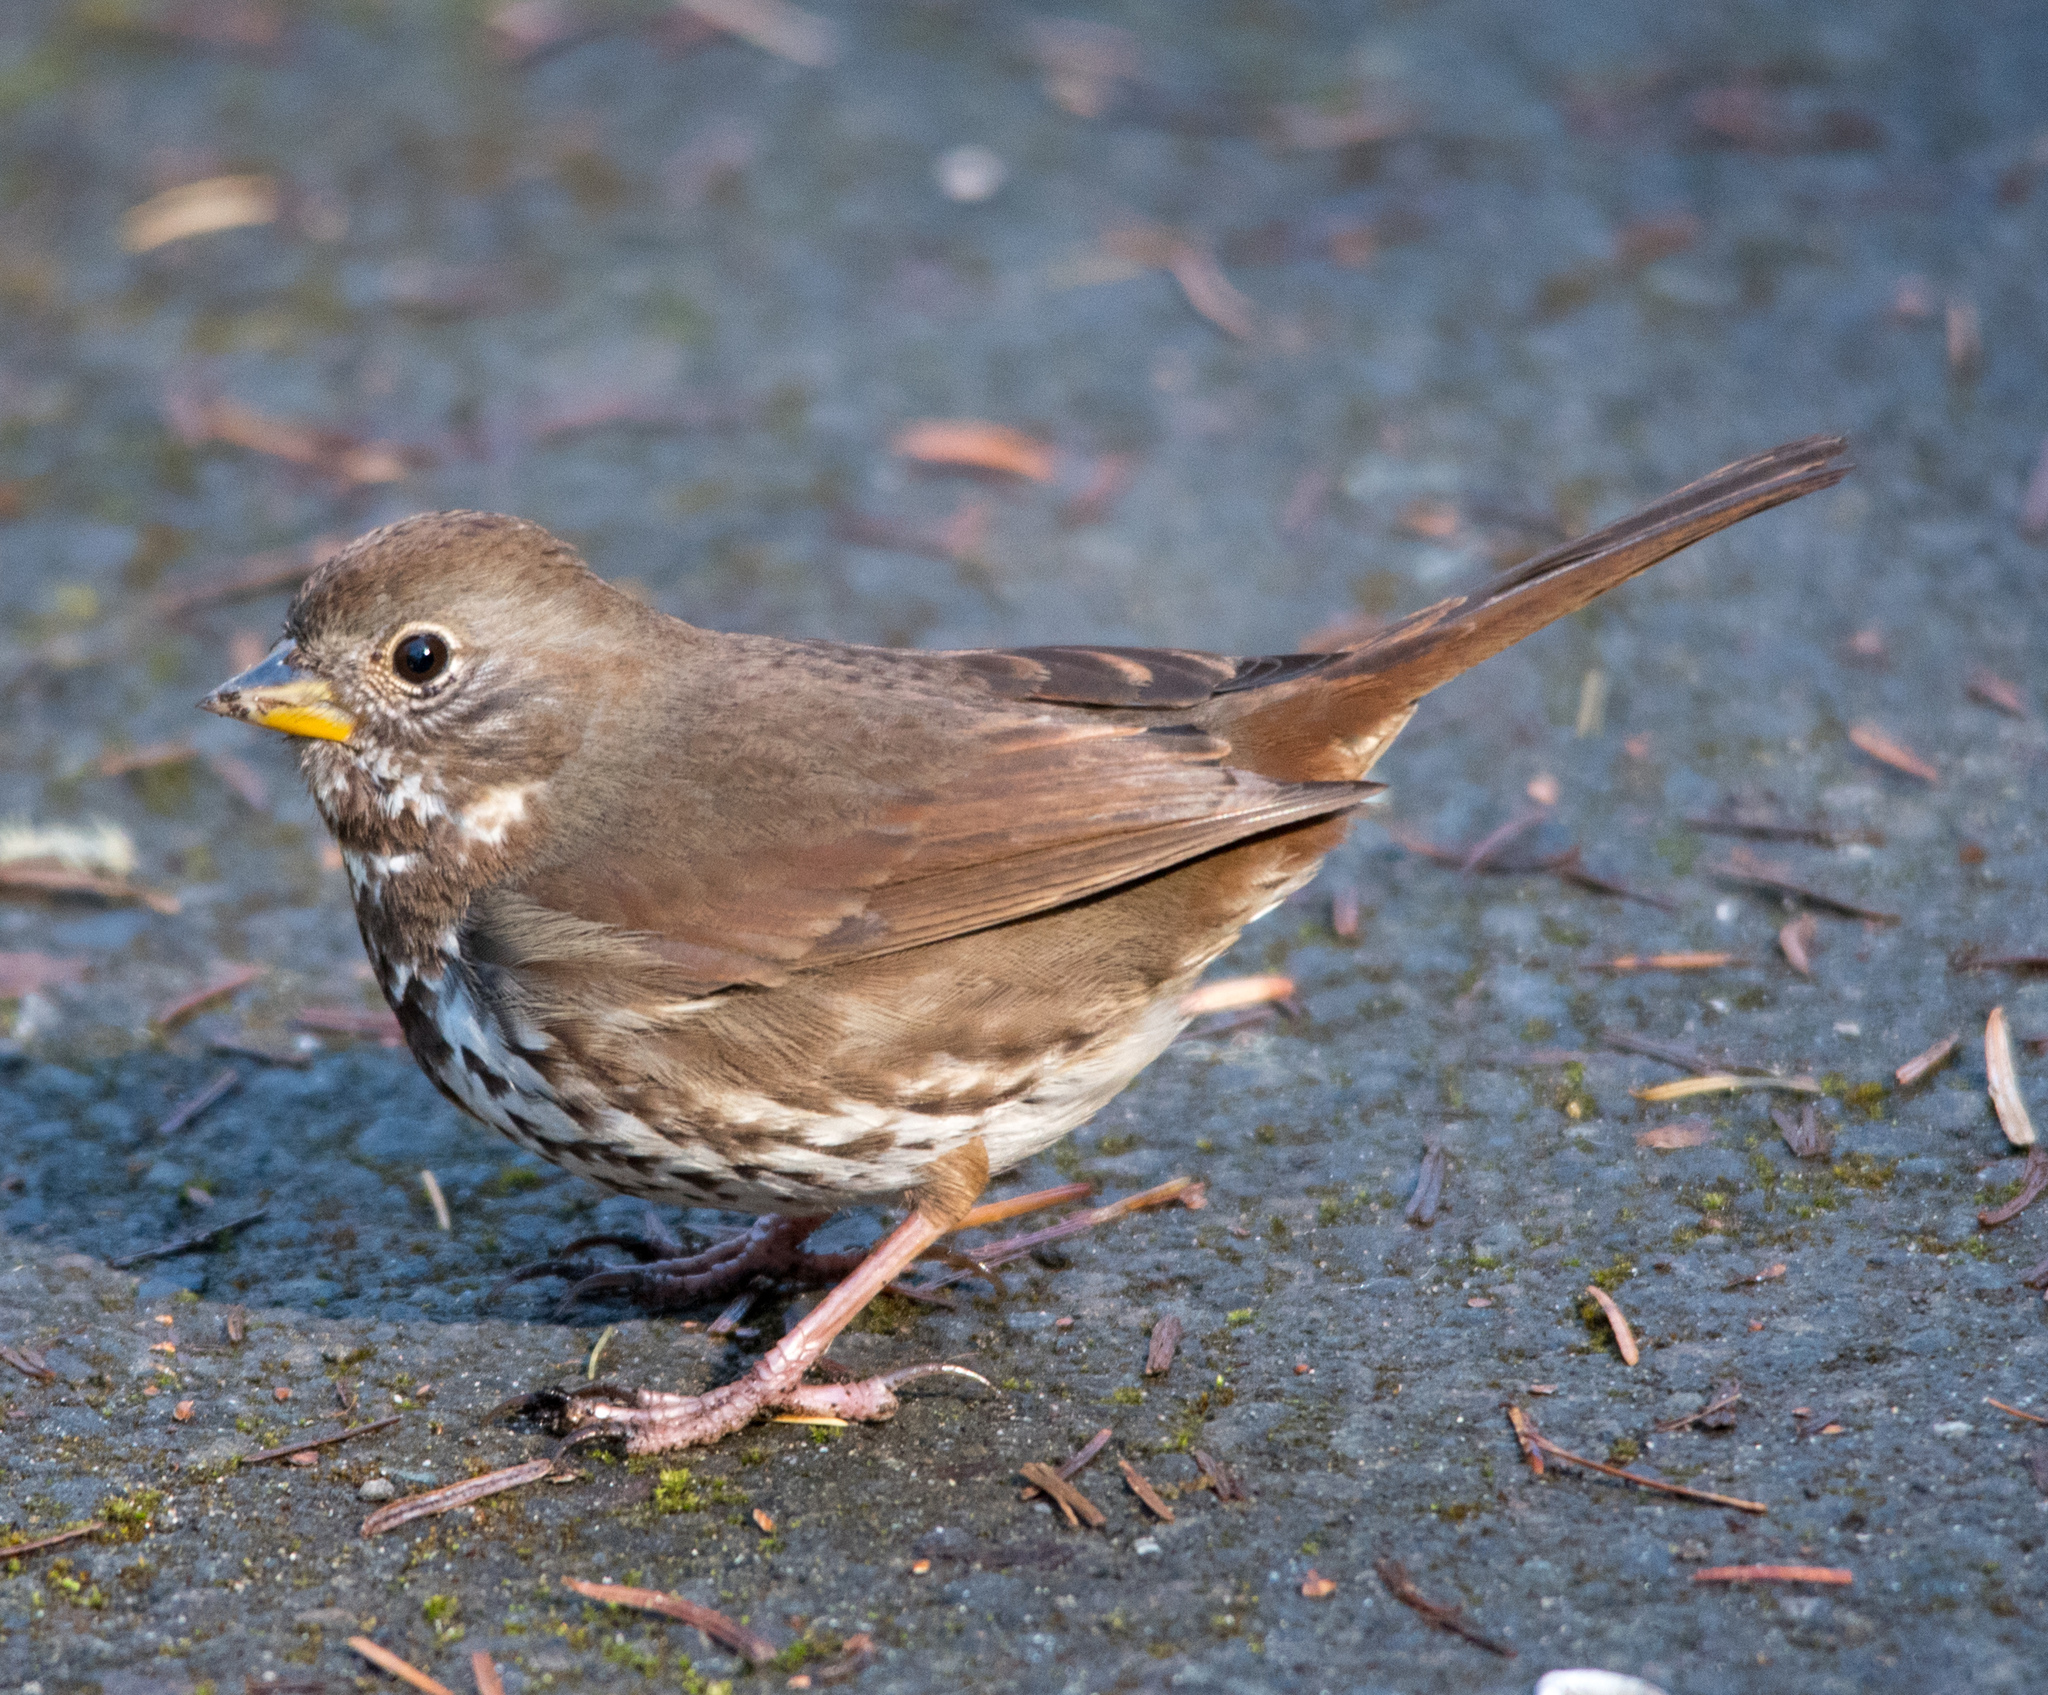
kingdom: Animalia
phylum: Chordata
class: Aves
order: Passeriformes
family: Passerellidae
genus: Passerella
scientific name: Passerella iliaca
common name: Fox sparrow
